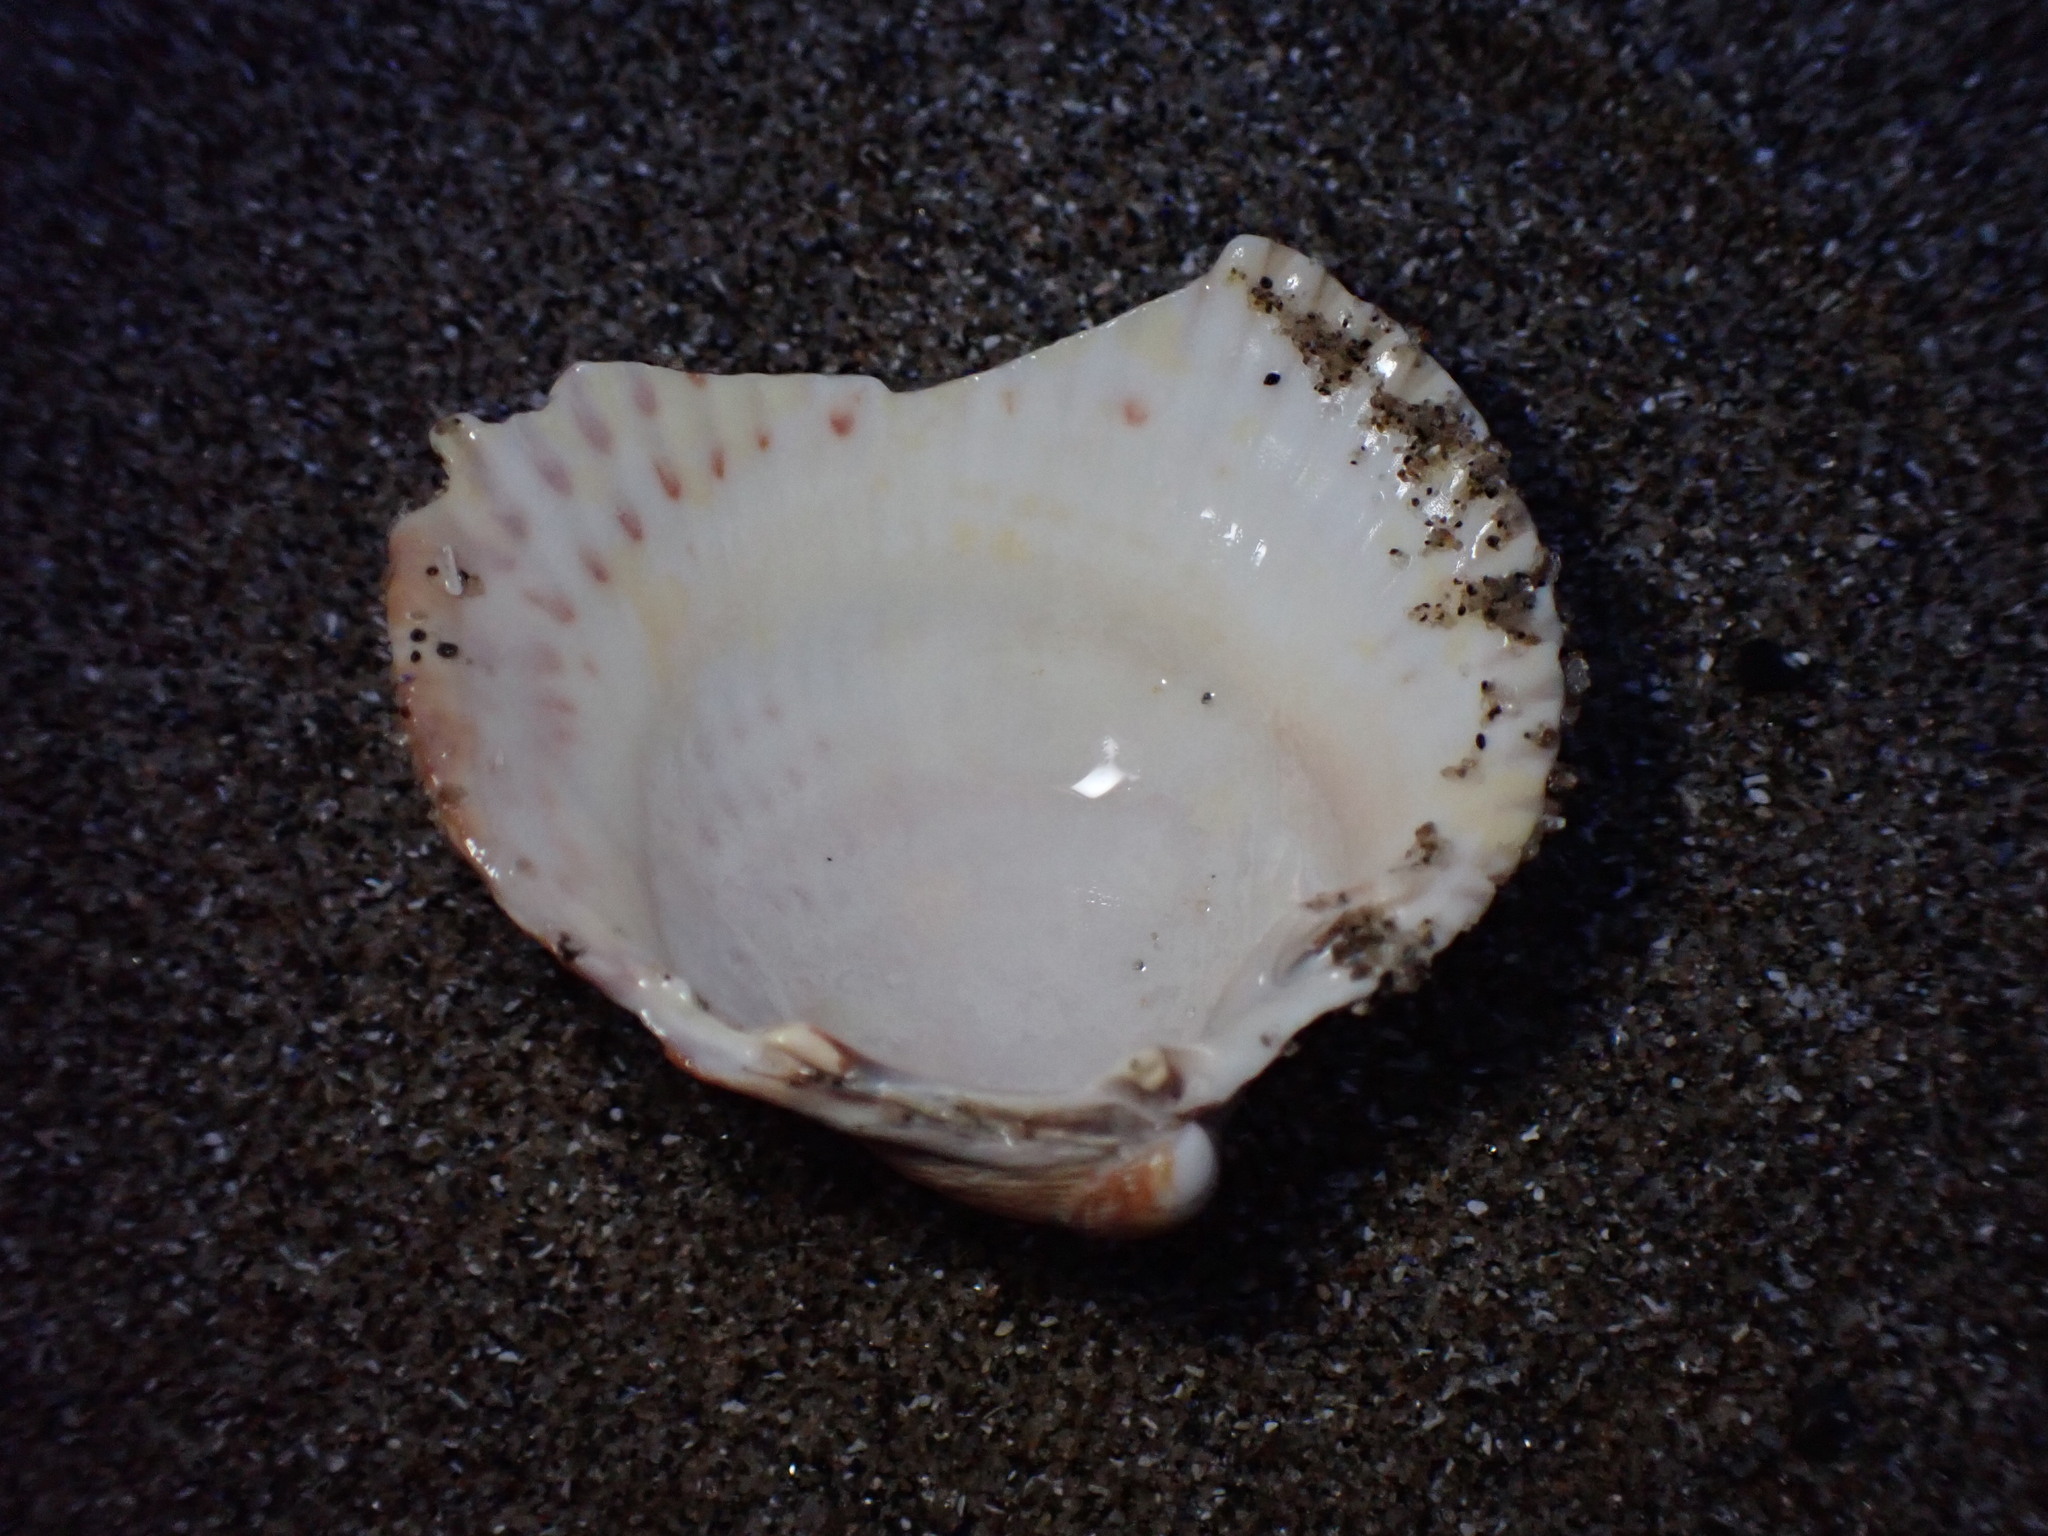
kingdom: Animalia
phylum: Mollusca
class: Bivalvia
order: Cardiida
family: Cardiidae
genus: Clinocardium
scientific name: Clinocardium nuttallii
